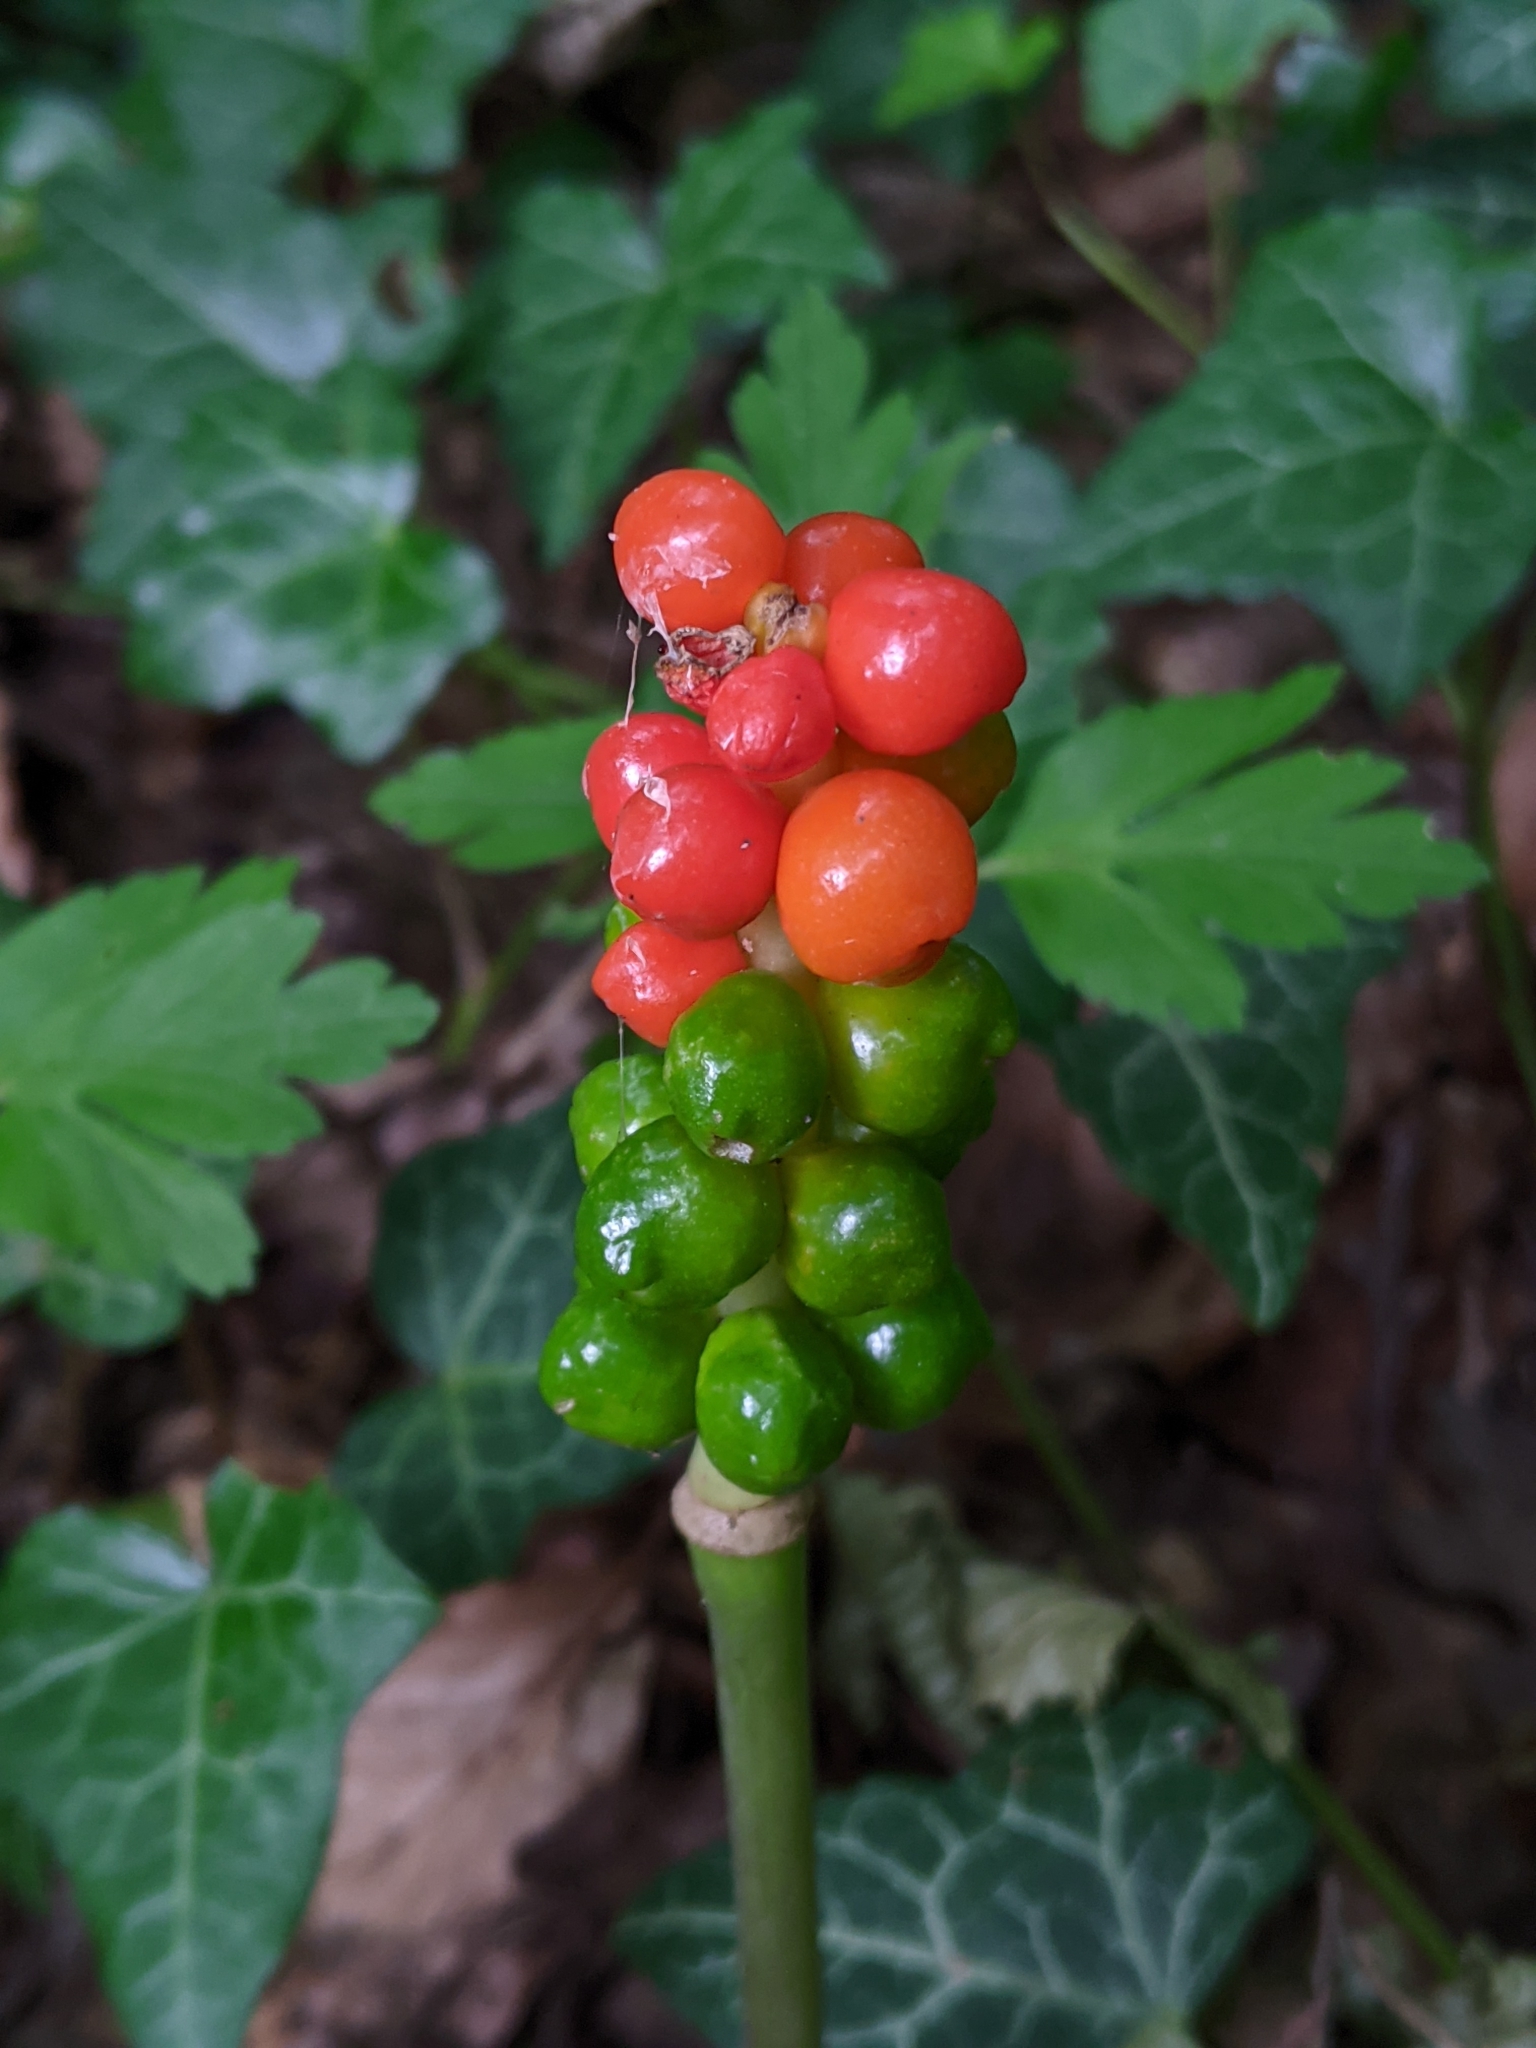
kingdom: Plantae
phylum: Tracheophyta
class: Liliopsida
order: Alismatales
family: Araceae
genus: Arum
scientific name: Arum maculatum
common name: Lords-and-ladies
